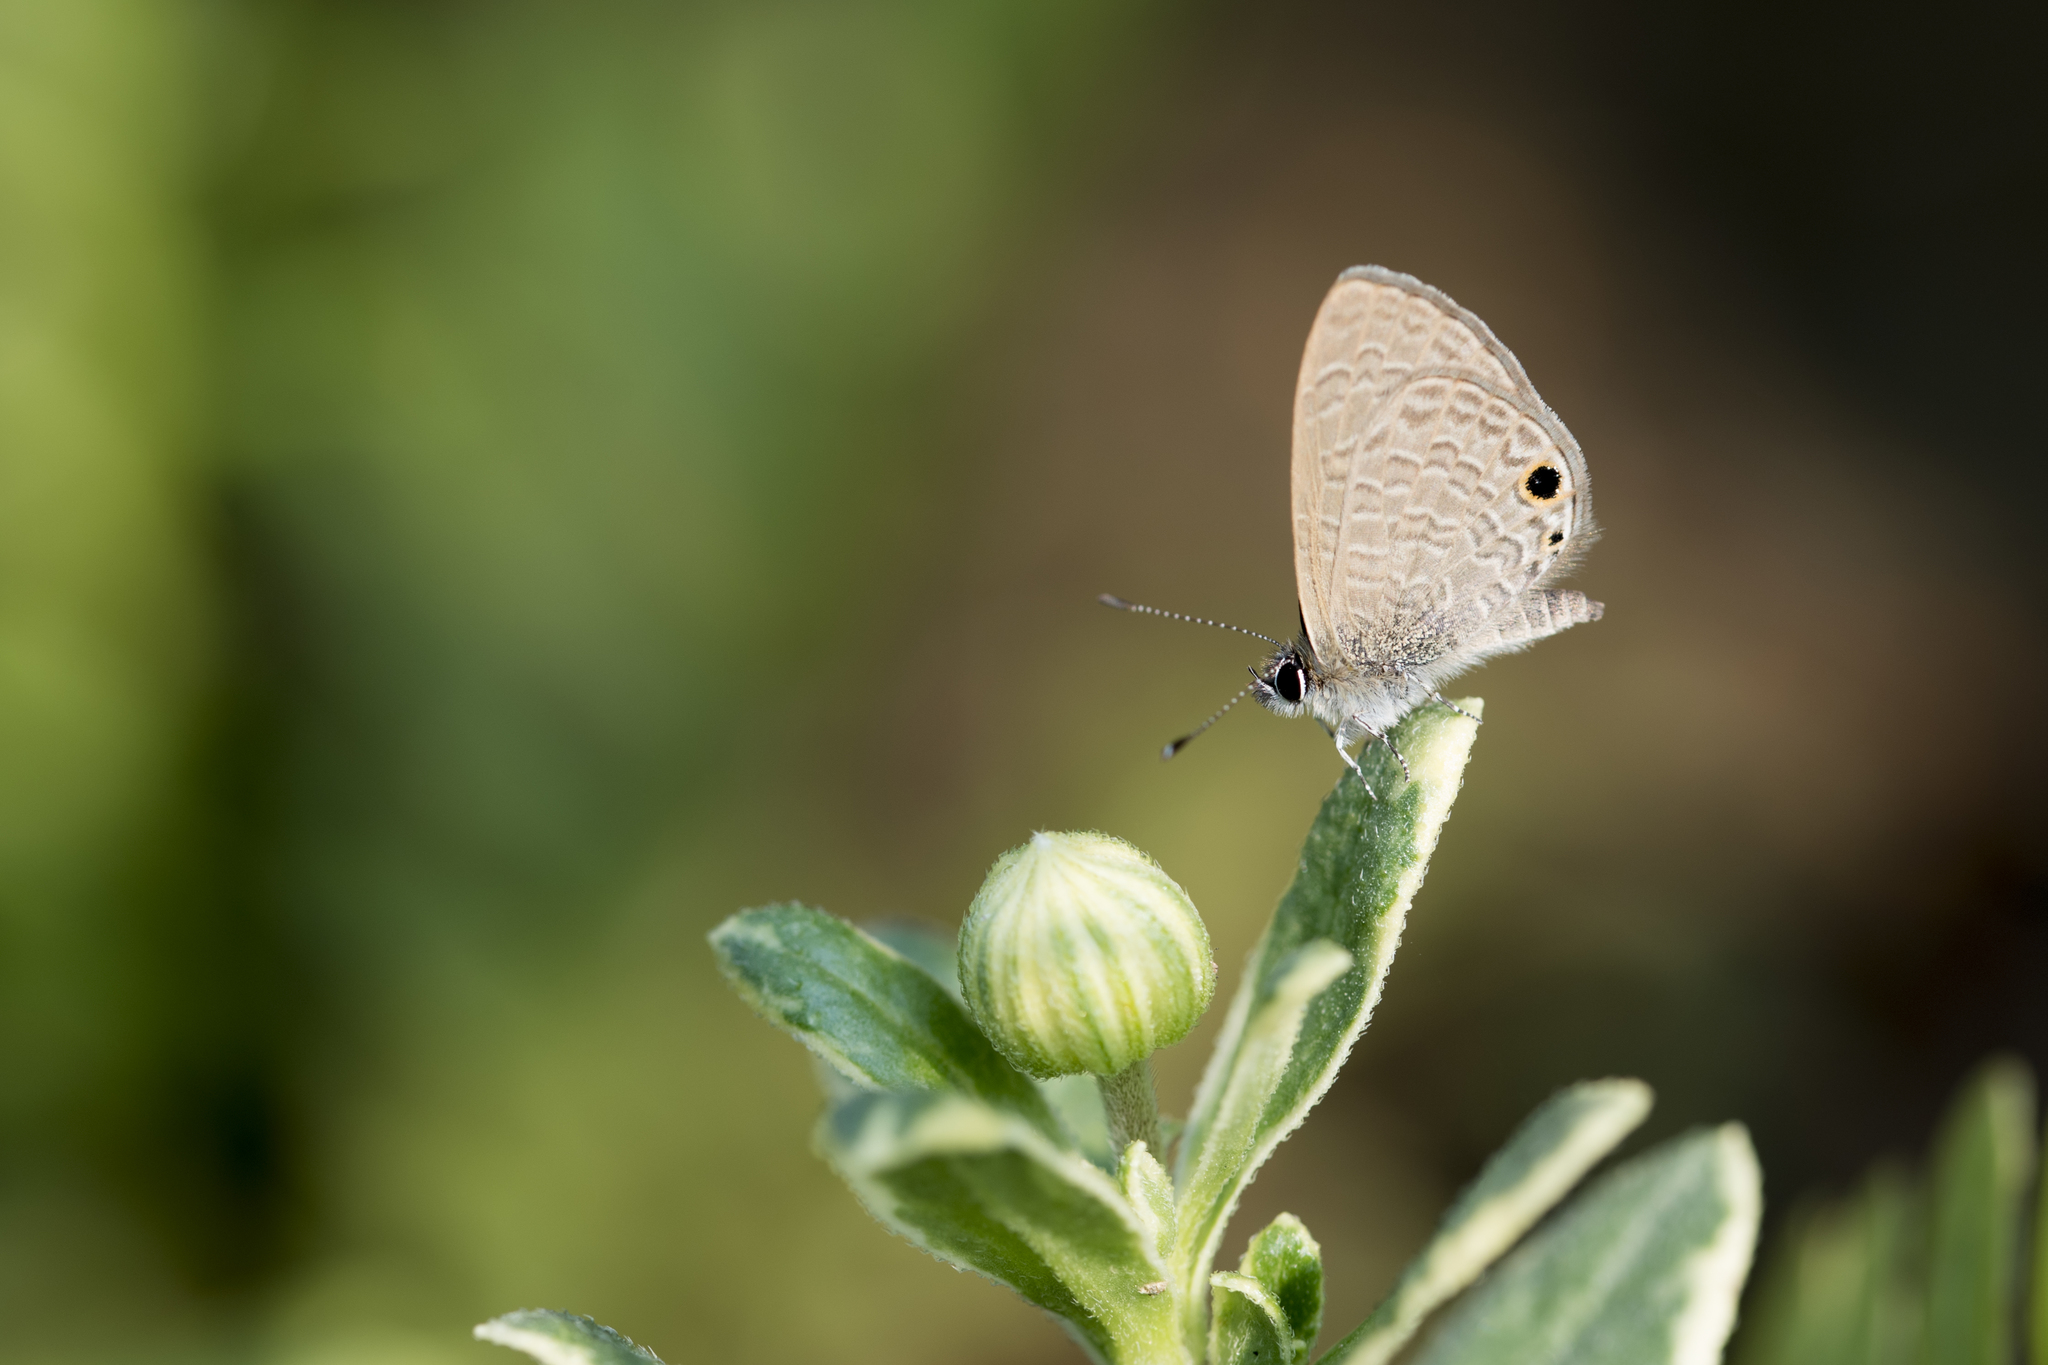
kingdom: Animalia
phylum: Arthropoda
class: Insecta
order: Lepidoptera
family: Lycaenidae
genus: Prosotas
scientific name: Prosotas dubiosa
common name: Tailless lineblue
